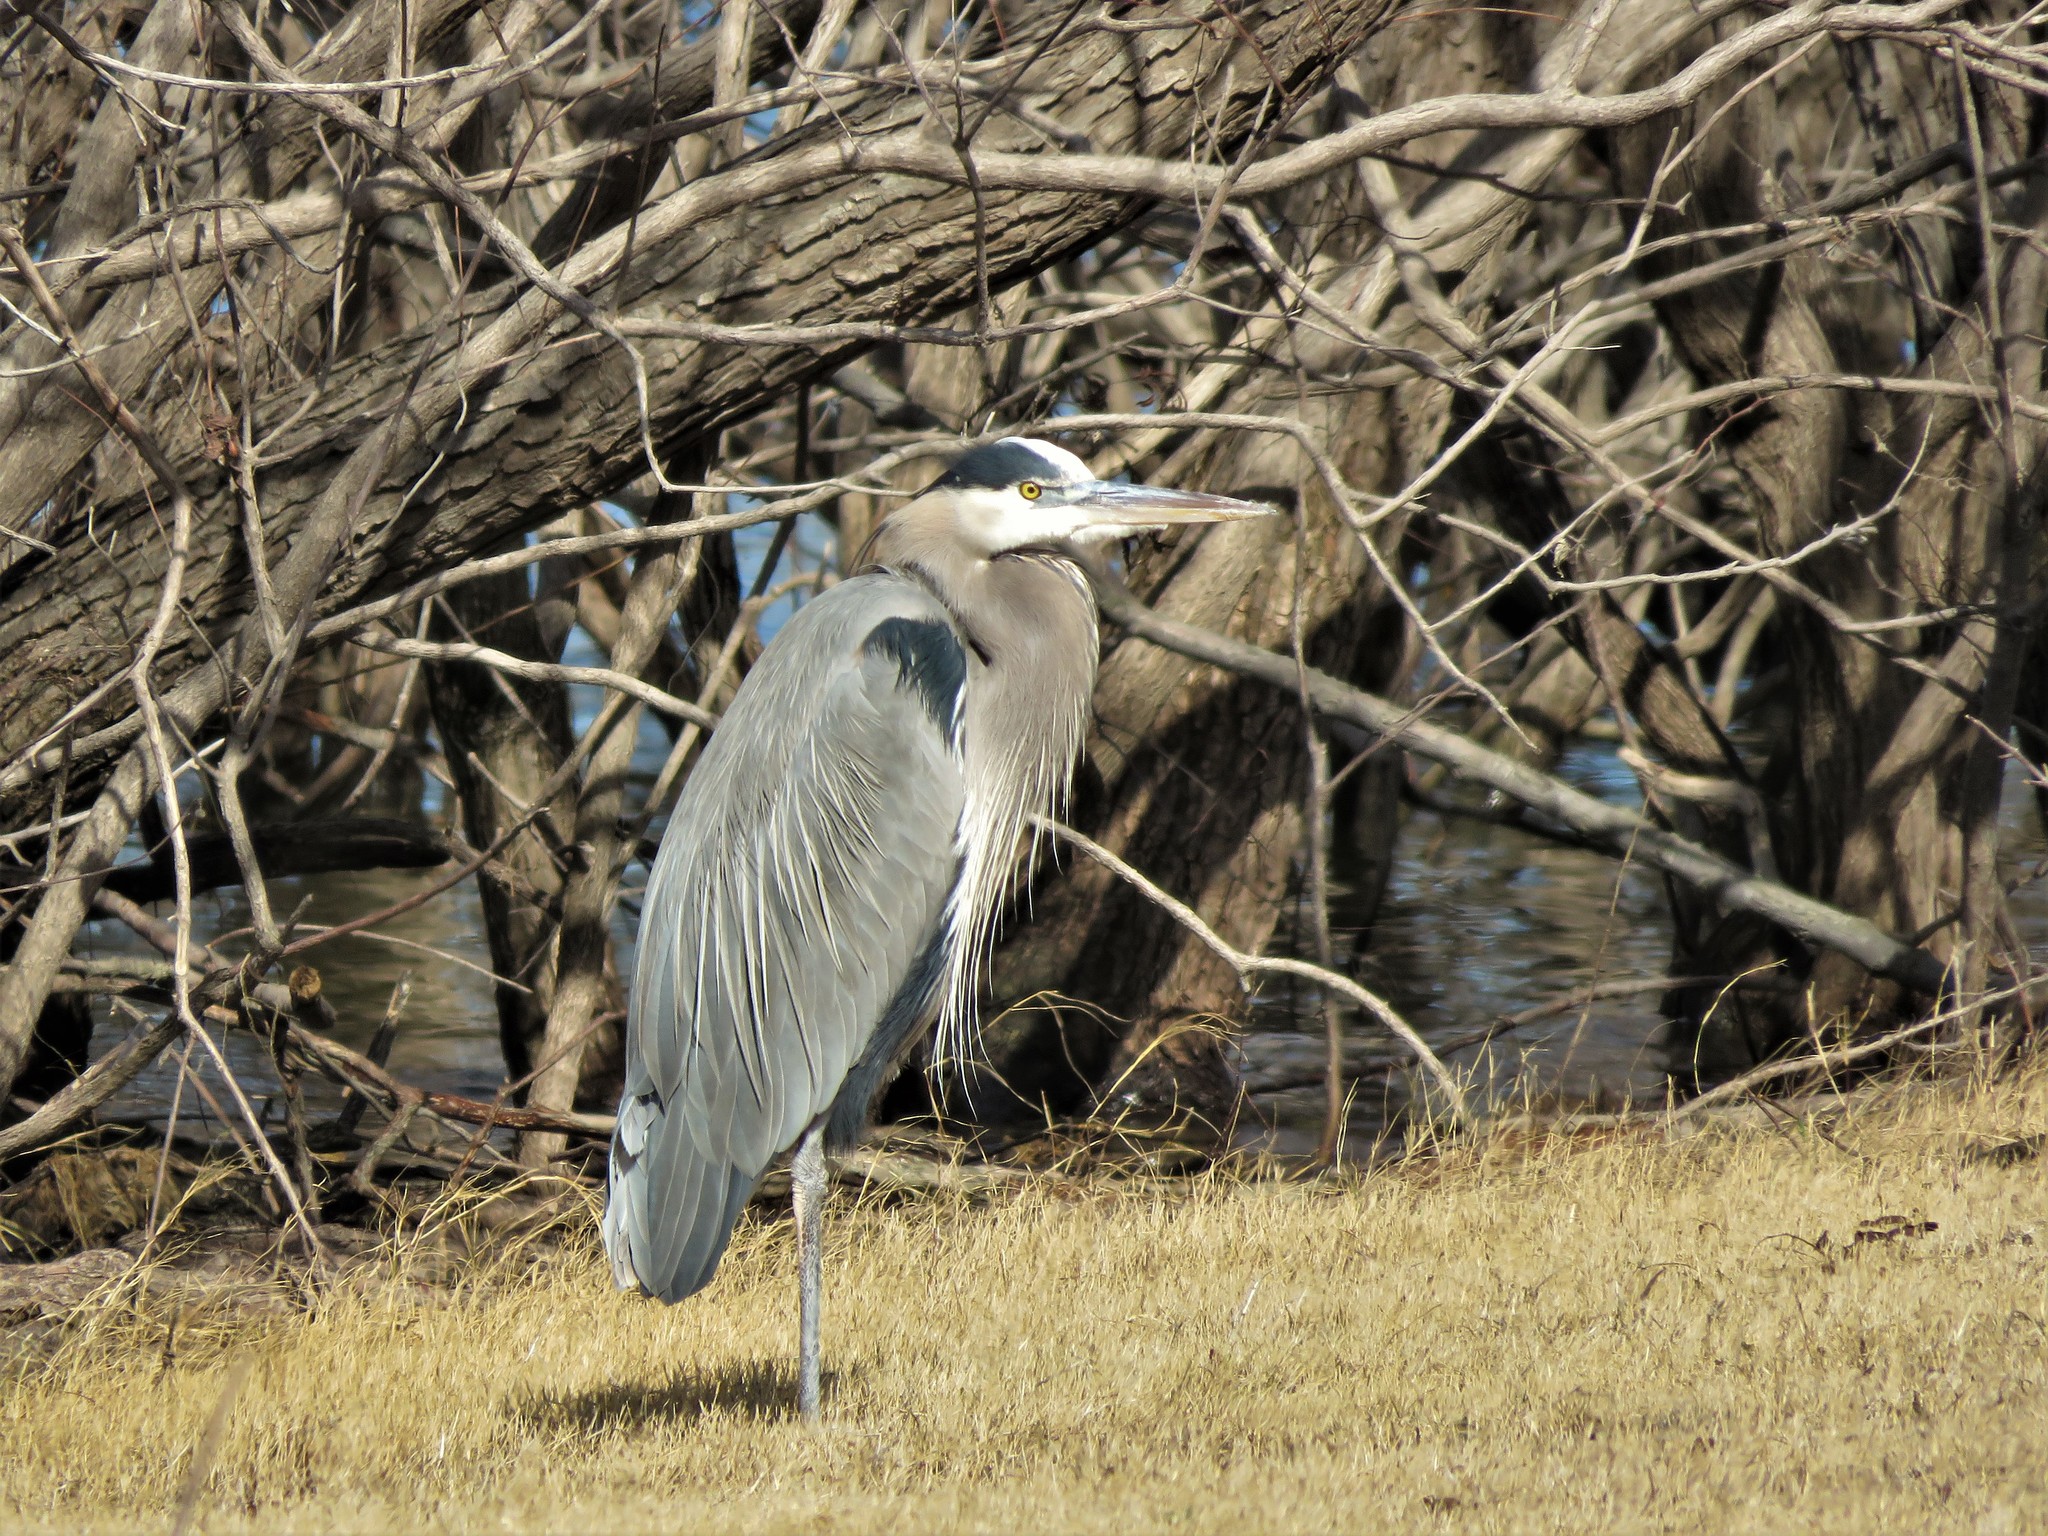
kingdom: Animalia
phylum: Chordata
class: Aves
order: Pelecaniformes
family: Ardeidae
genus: Ardea
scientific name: Ardea herodias
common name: Great blue heron
